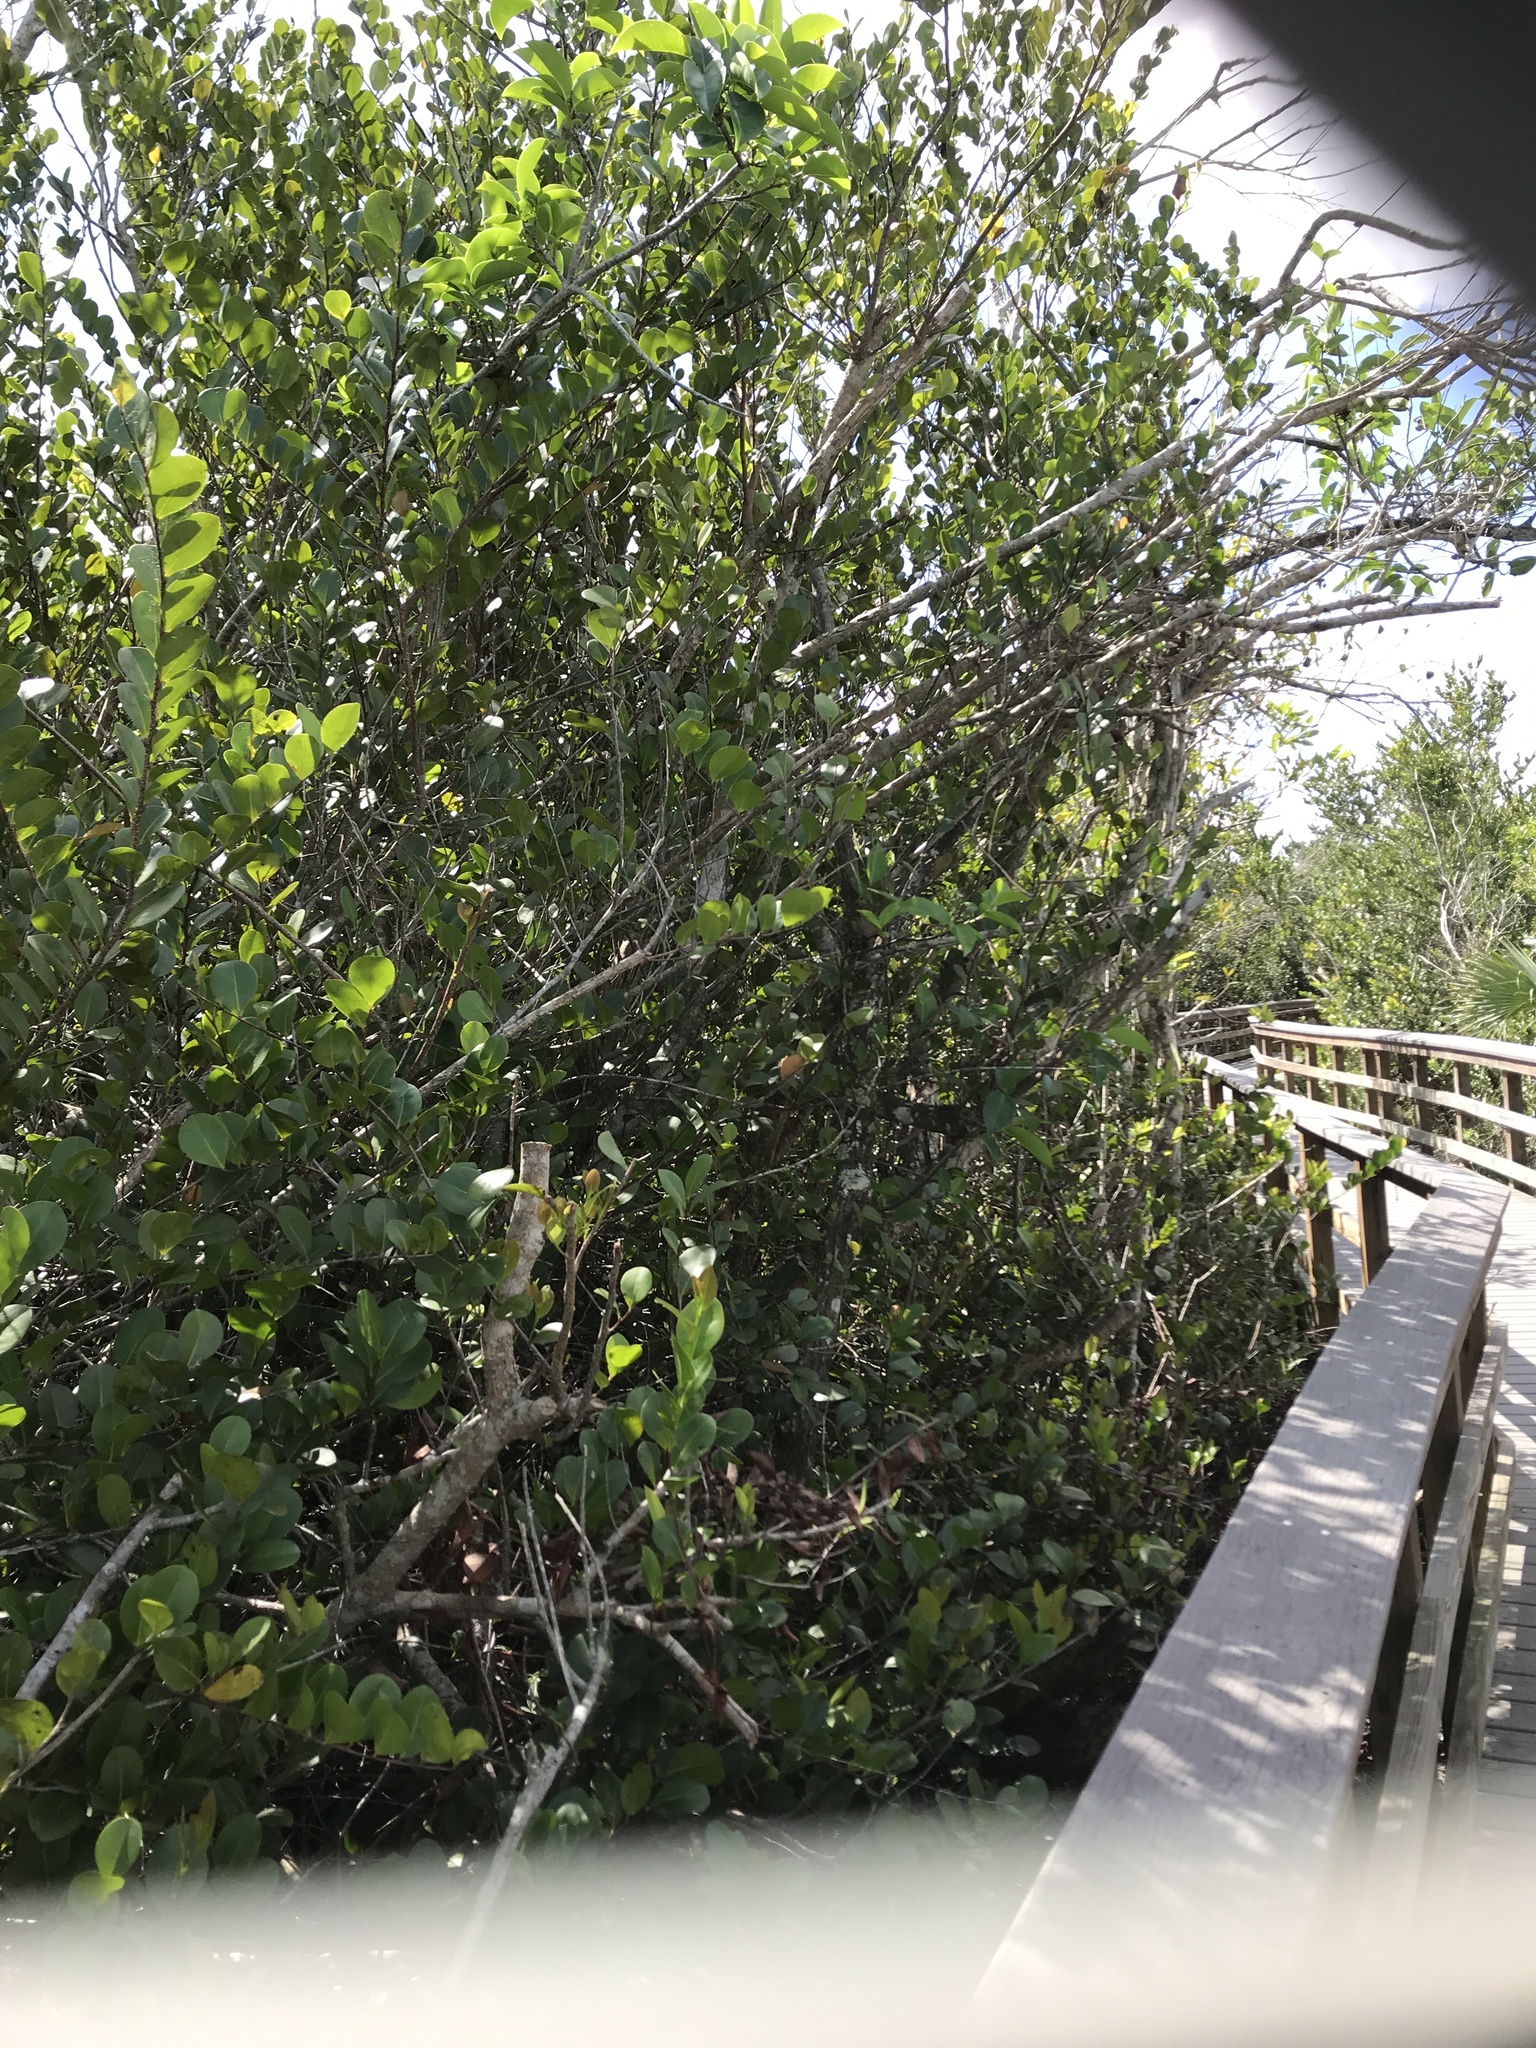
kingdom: Plantae
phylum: Tracheophyta
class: Magnoliopsida
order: Malpighiales
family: Chrysobalanaceae
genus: Chrysobalanus
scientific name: Chrysobalanus icaco
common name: Coco plum
